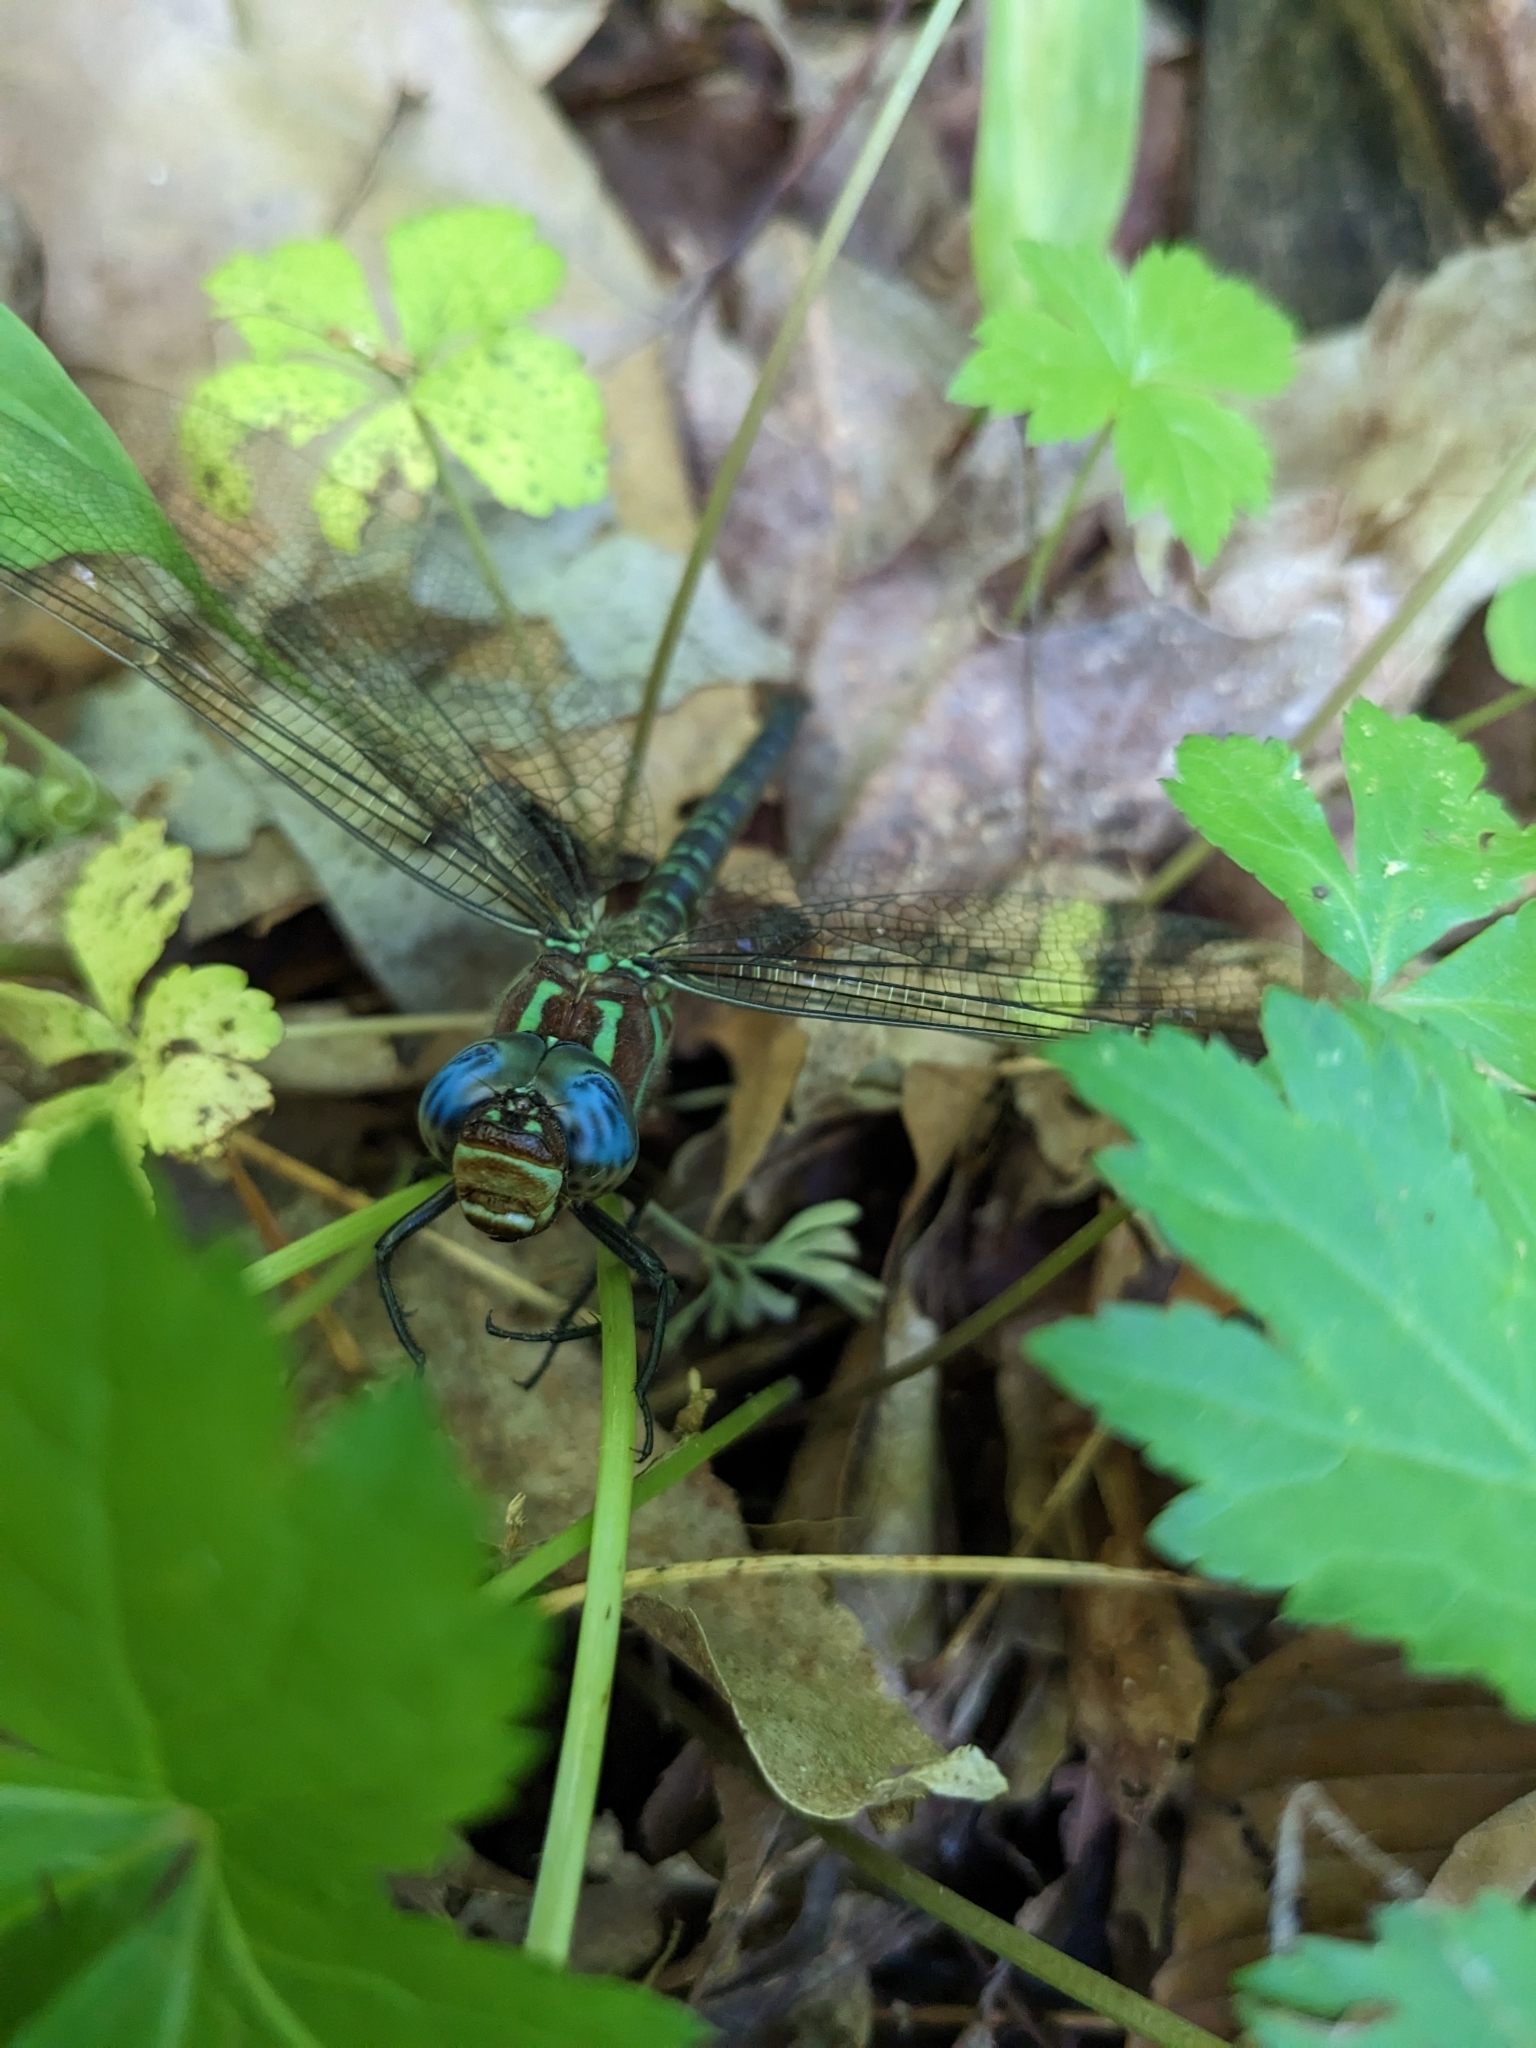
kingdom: Animalia
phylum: Arthropoda
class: Insecta
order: Odonata
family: Aeshnidae
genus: Epiaeschna
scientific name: Epiaeschna heros
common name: Swamp darner
